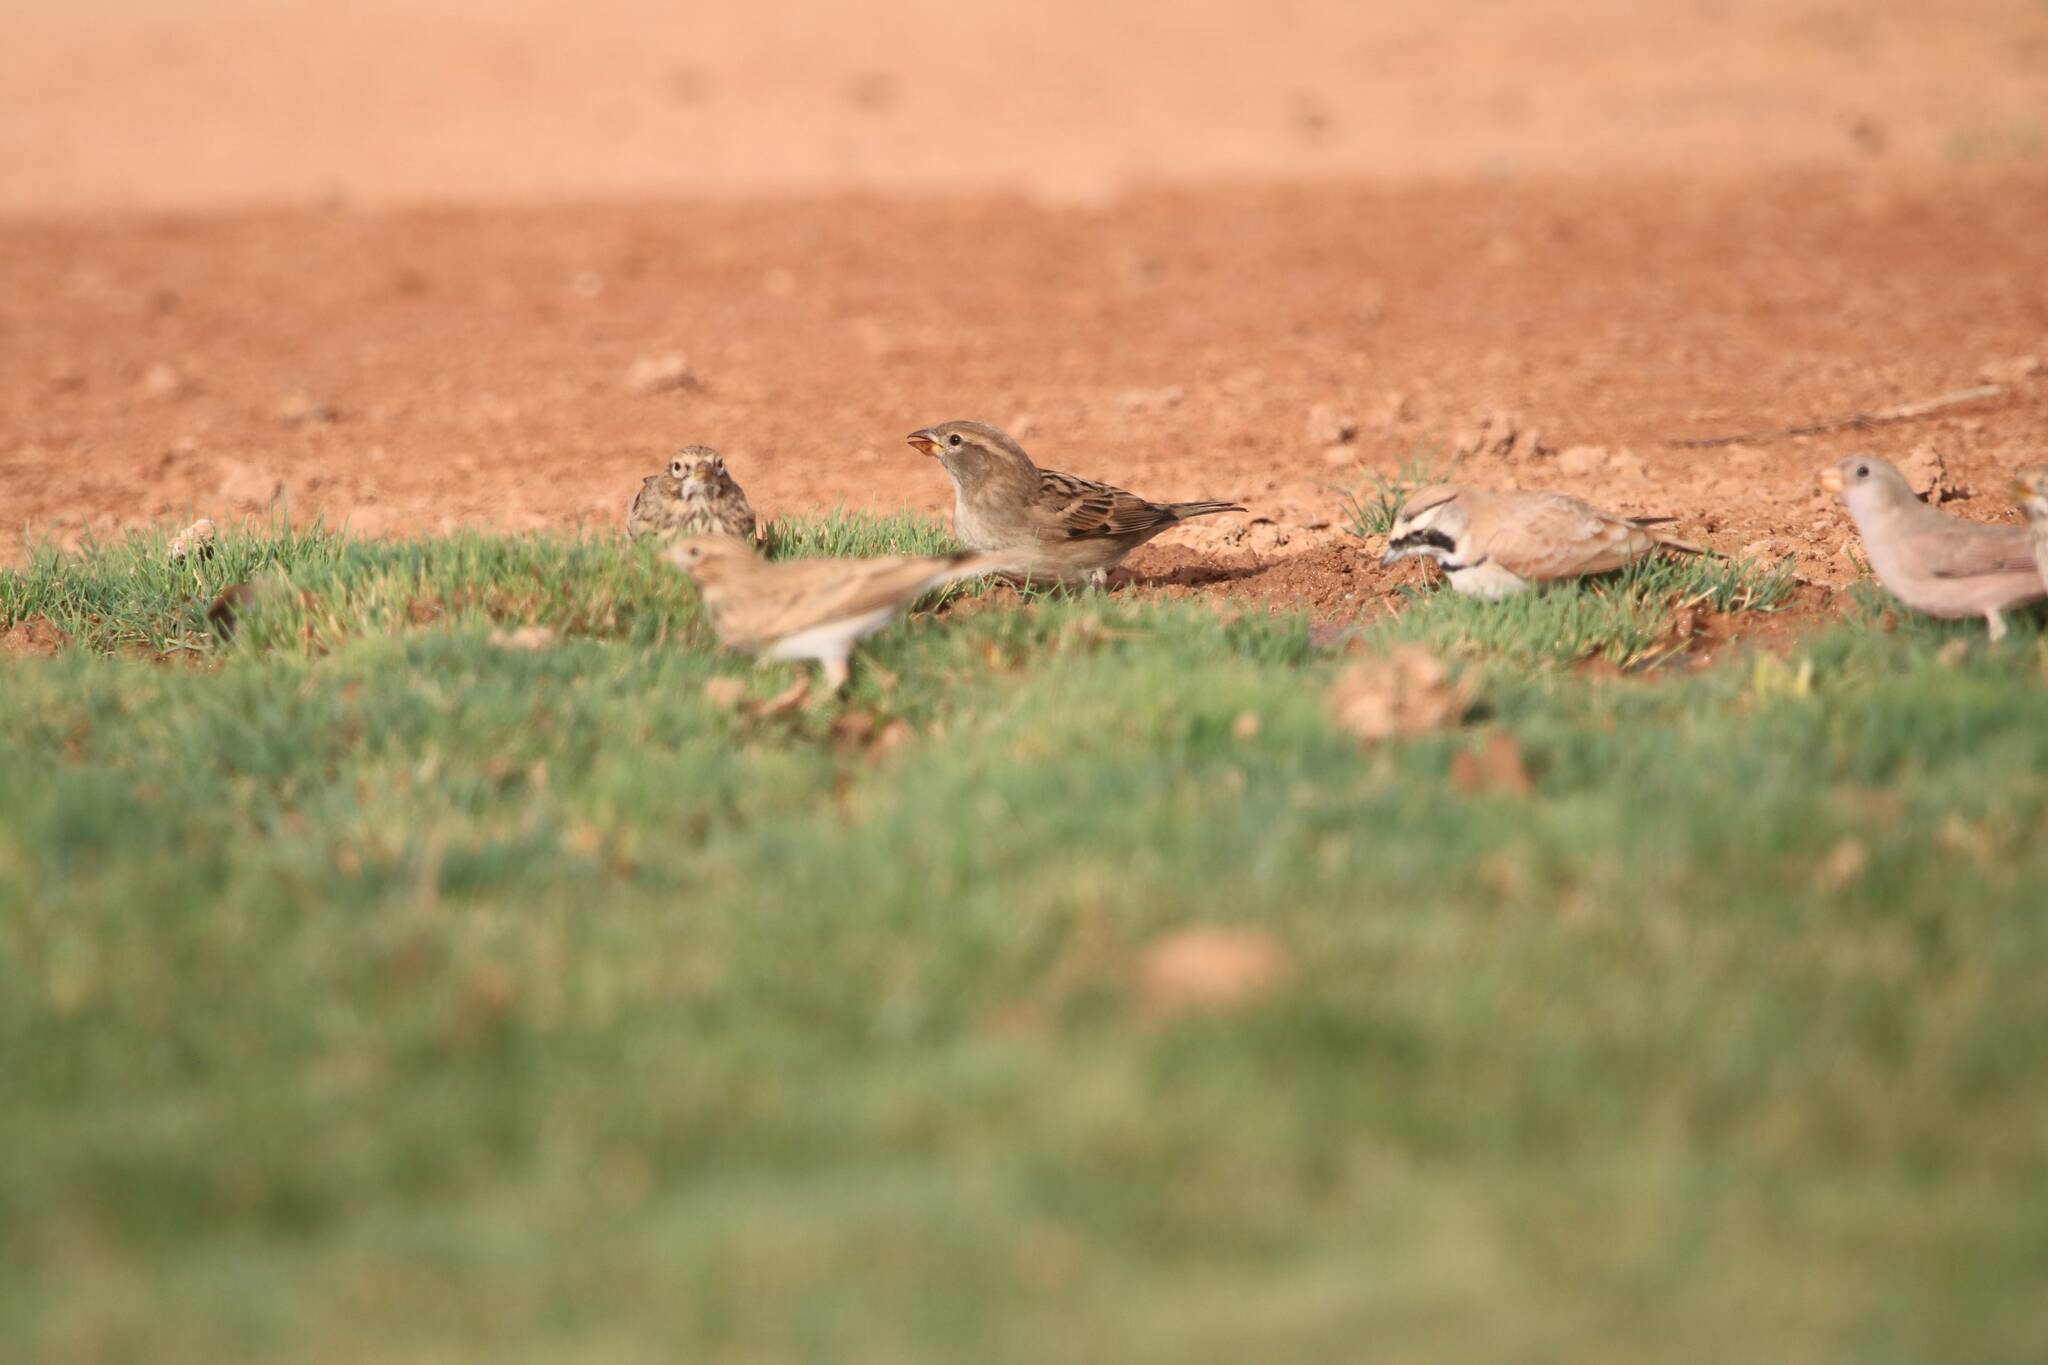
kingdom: Animalia
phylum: Chordata
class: Aves
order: Passeriformes
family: Passeridae
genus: Passer
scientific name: Passer hispaniolensis
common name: Spanish sparrow
